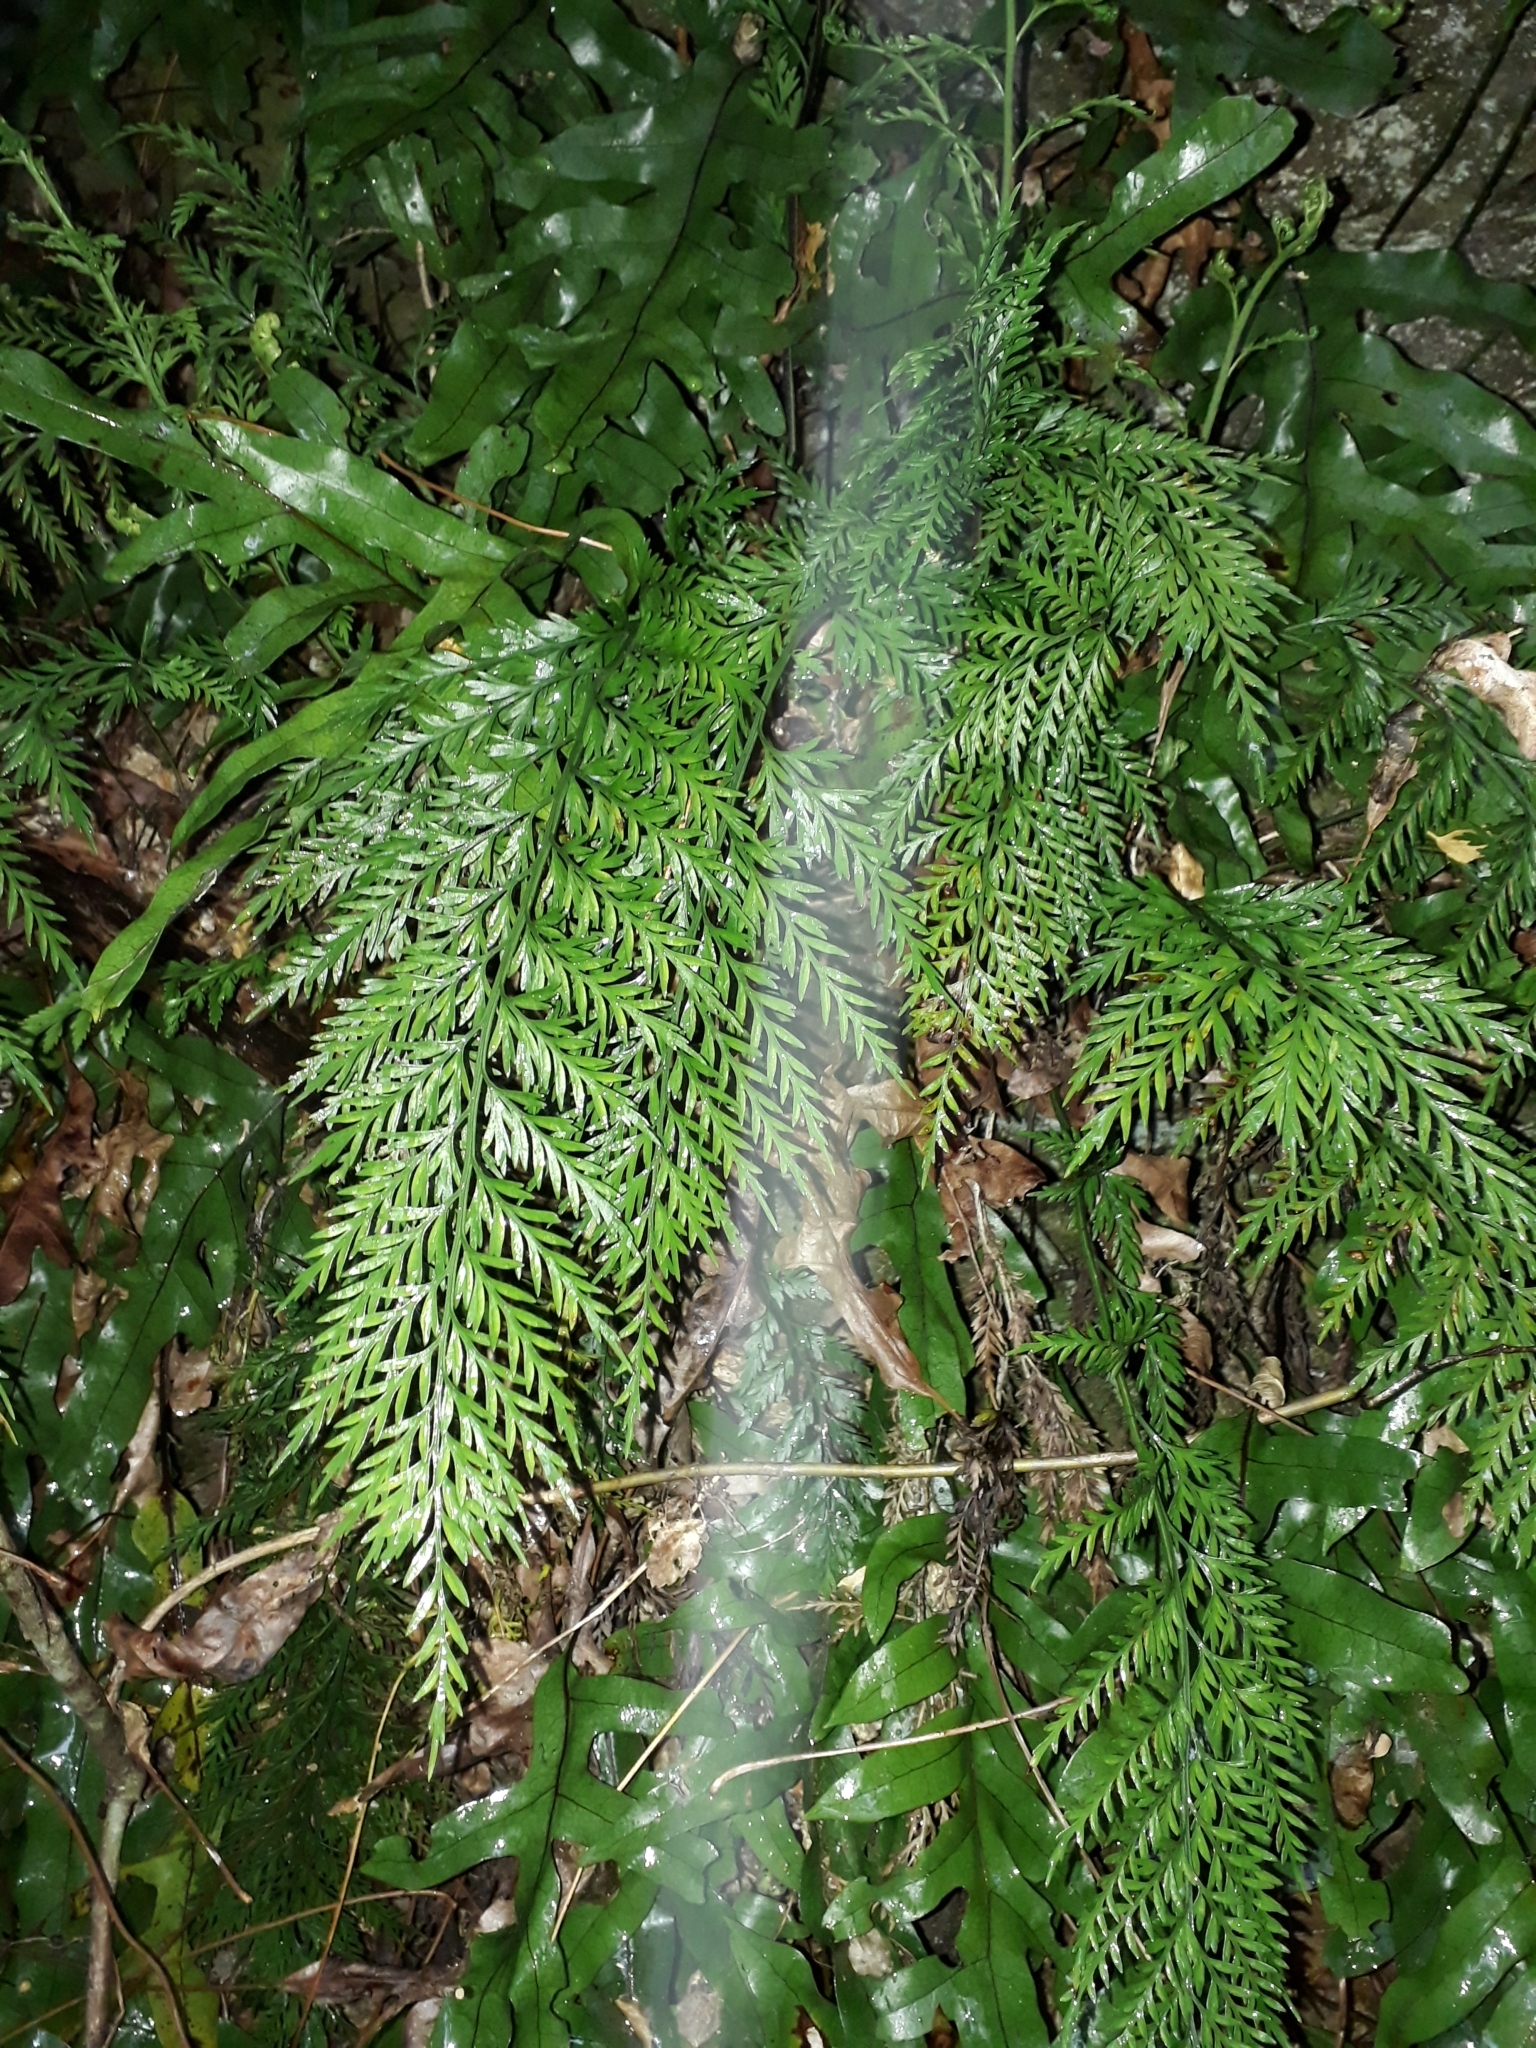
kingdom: Plantae
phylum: Tracheophyta
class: Polypodiopsida
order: Polypodiales
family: Aspleniaceae
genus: Asplenium
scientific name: Asplenium appendiculatum
